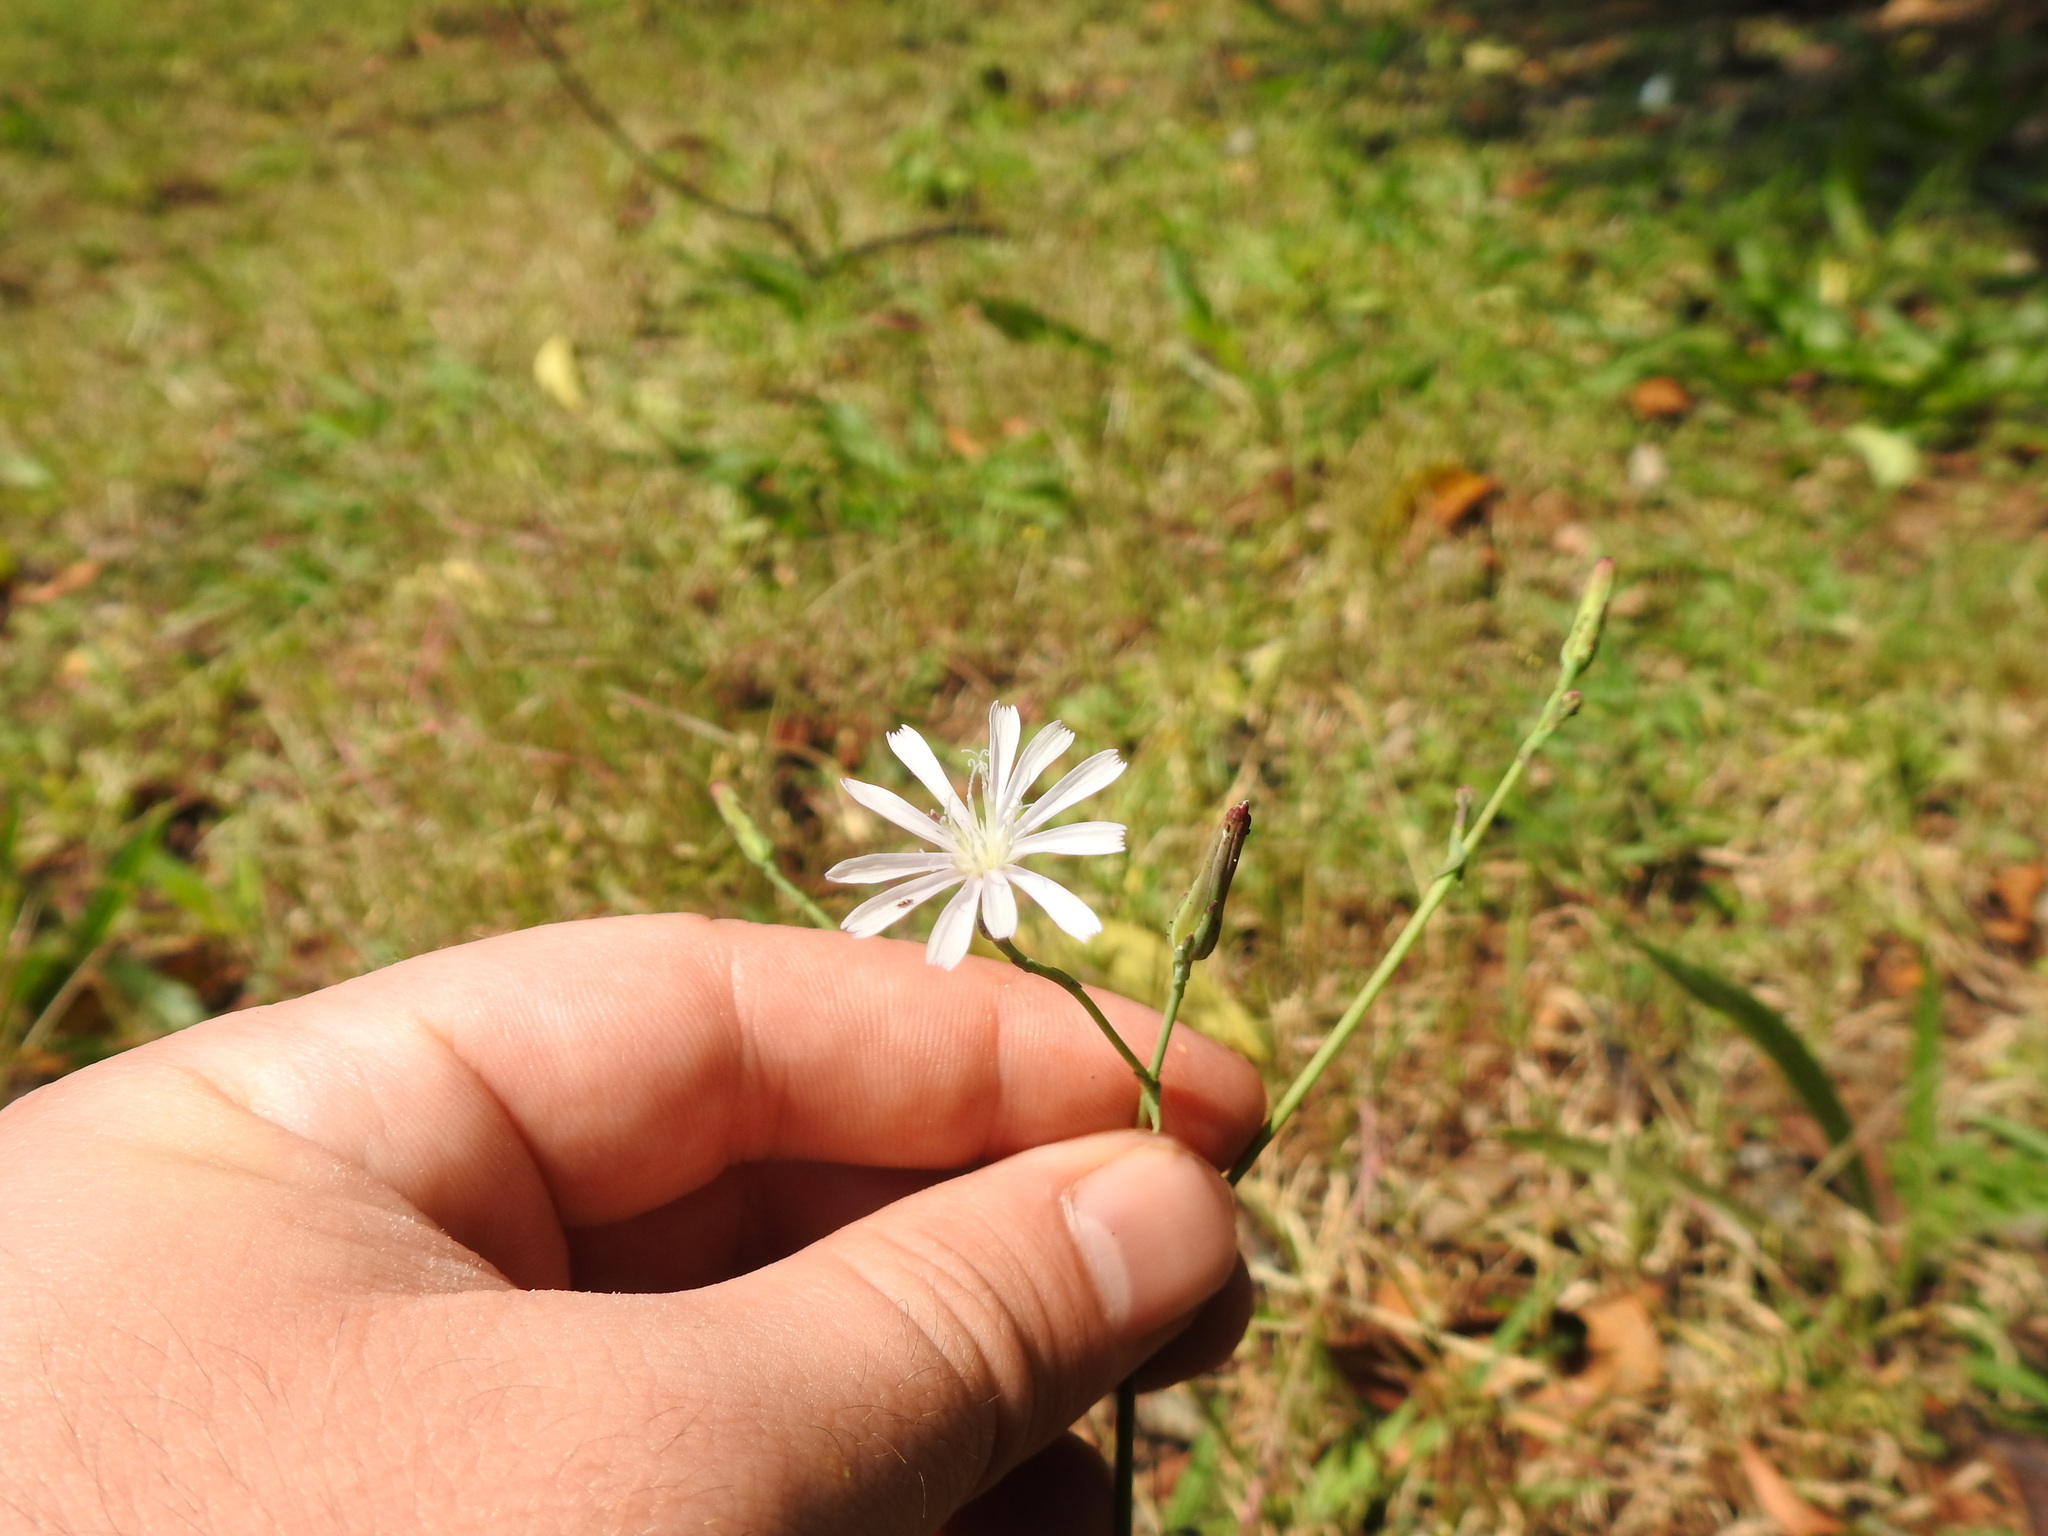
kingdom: Plantae
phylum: Tracheophyta
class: Magnoliopsida
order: Asterales
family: Asteraceae
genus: Lactuca
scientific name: Lactuca inermis
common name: Wild lettuce
